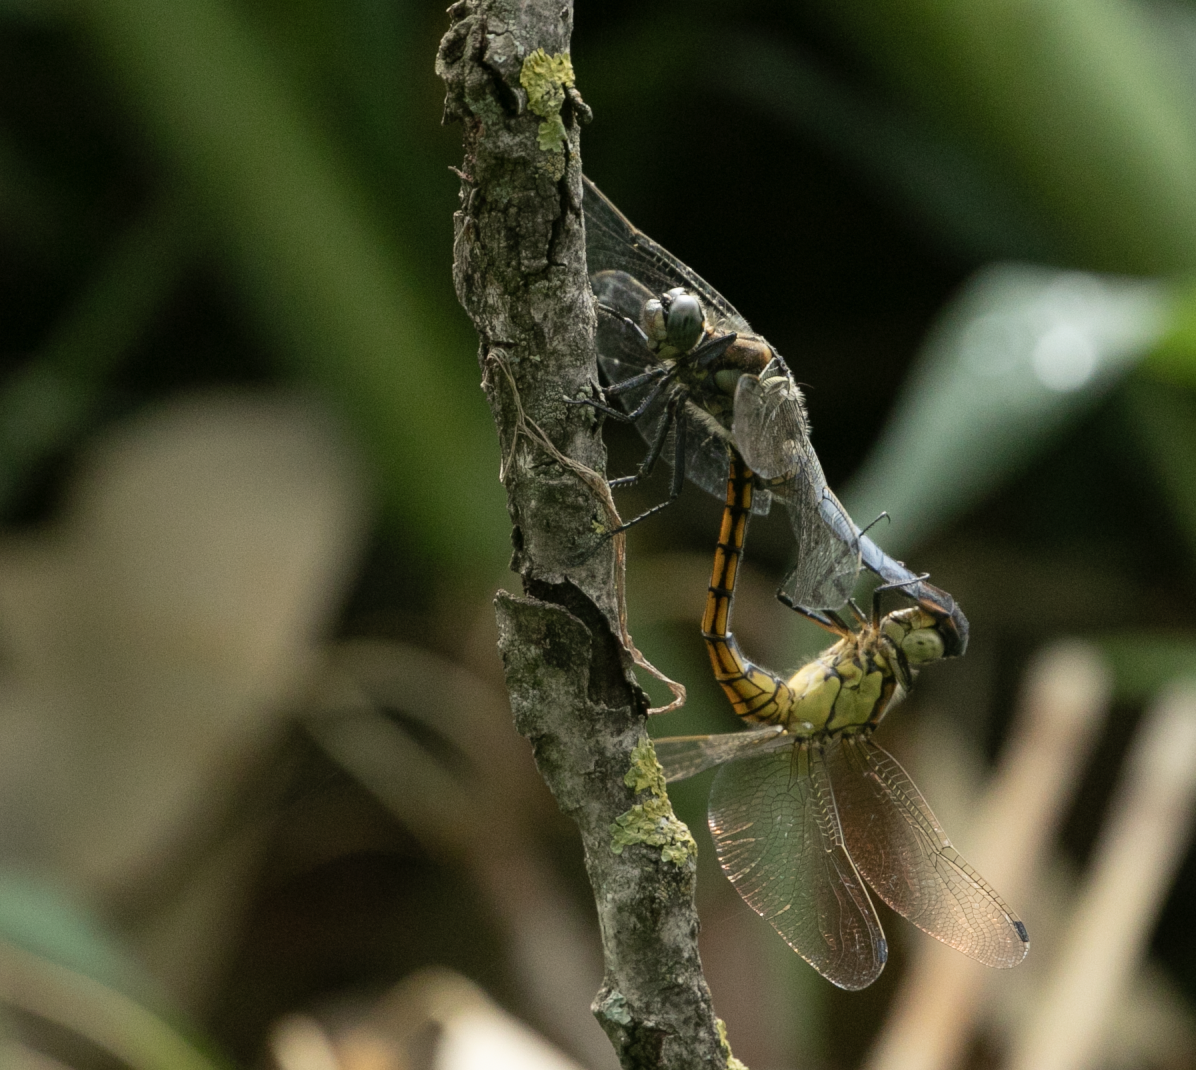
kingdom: Animalia
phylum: Arthropoda
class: Insecta
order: Odonata
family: Libellulidae
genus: Orthetrum
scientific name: Orthetrum cancellatum
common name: Black-tailed skimmer
